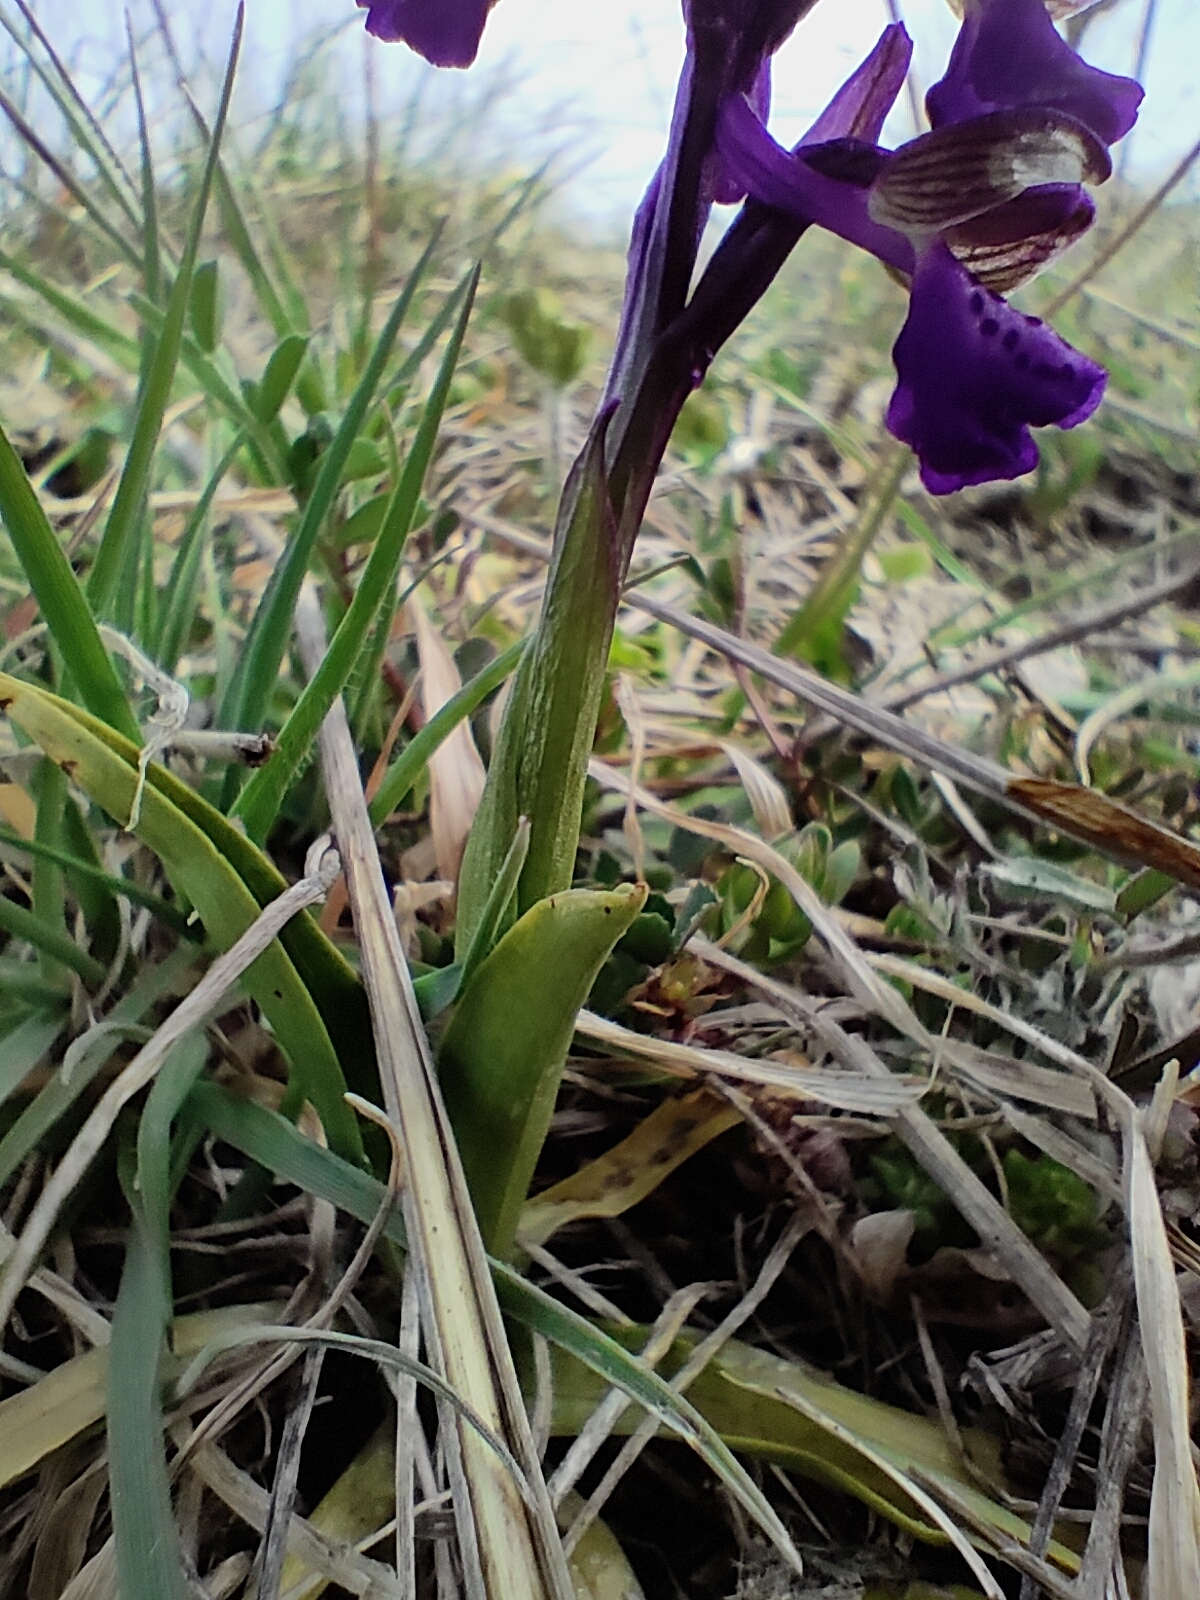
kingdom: Plantae
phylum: Tracheophyta
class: Liliopsida
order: Asparagales
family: Orchidaceae
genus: Anacamptis
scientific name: Anacamptis morio
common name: Green-winged orchid
